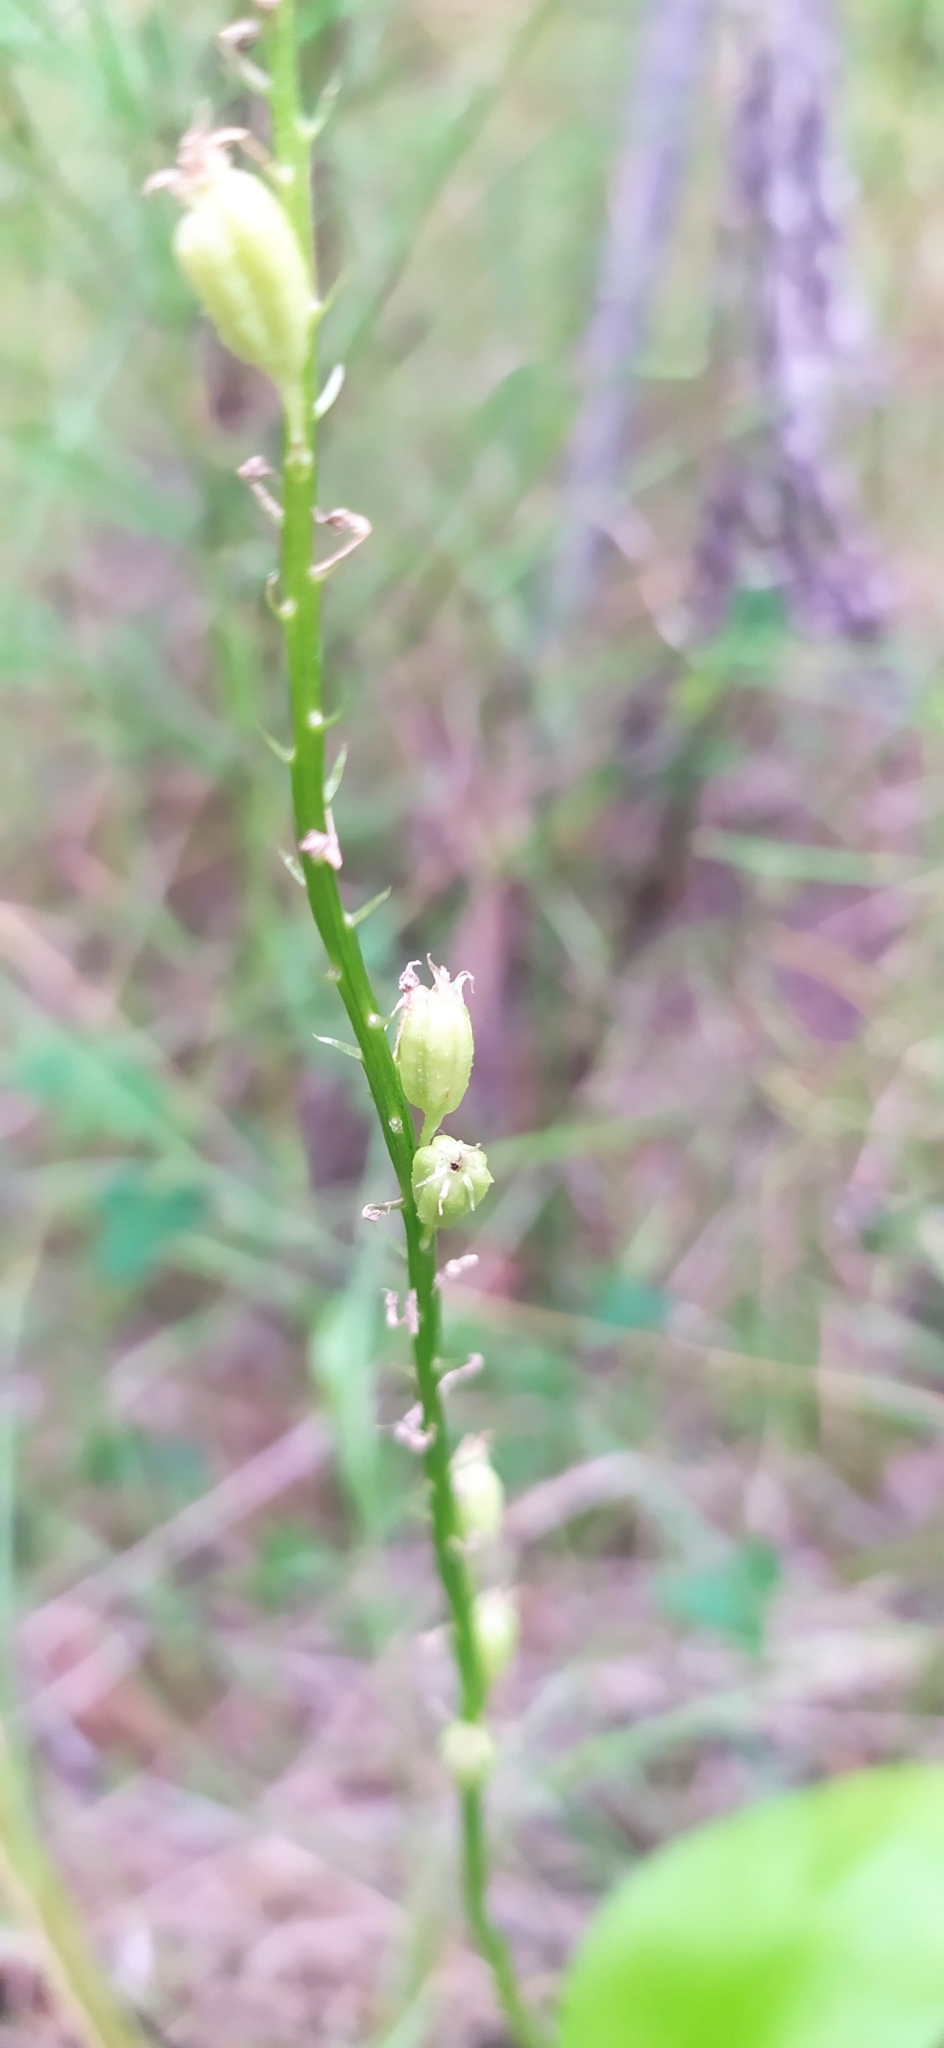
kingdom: Plantae
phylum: Tracheophyta
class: Liliopsida
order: Asparagales
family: Orchidaceae
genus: Malaxis
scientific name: Malaxis monophyllos
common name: White adder's-mouth
